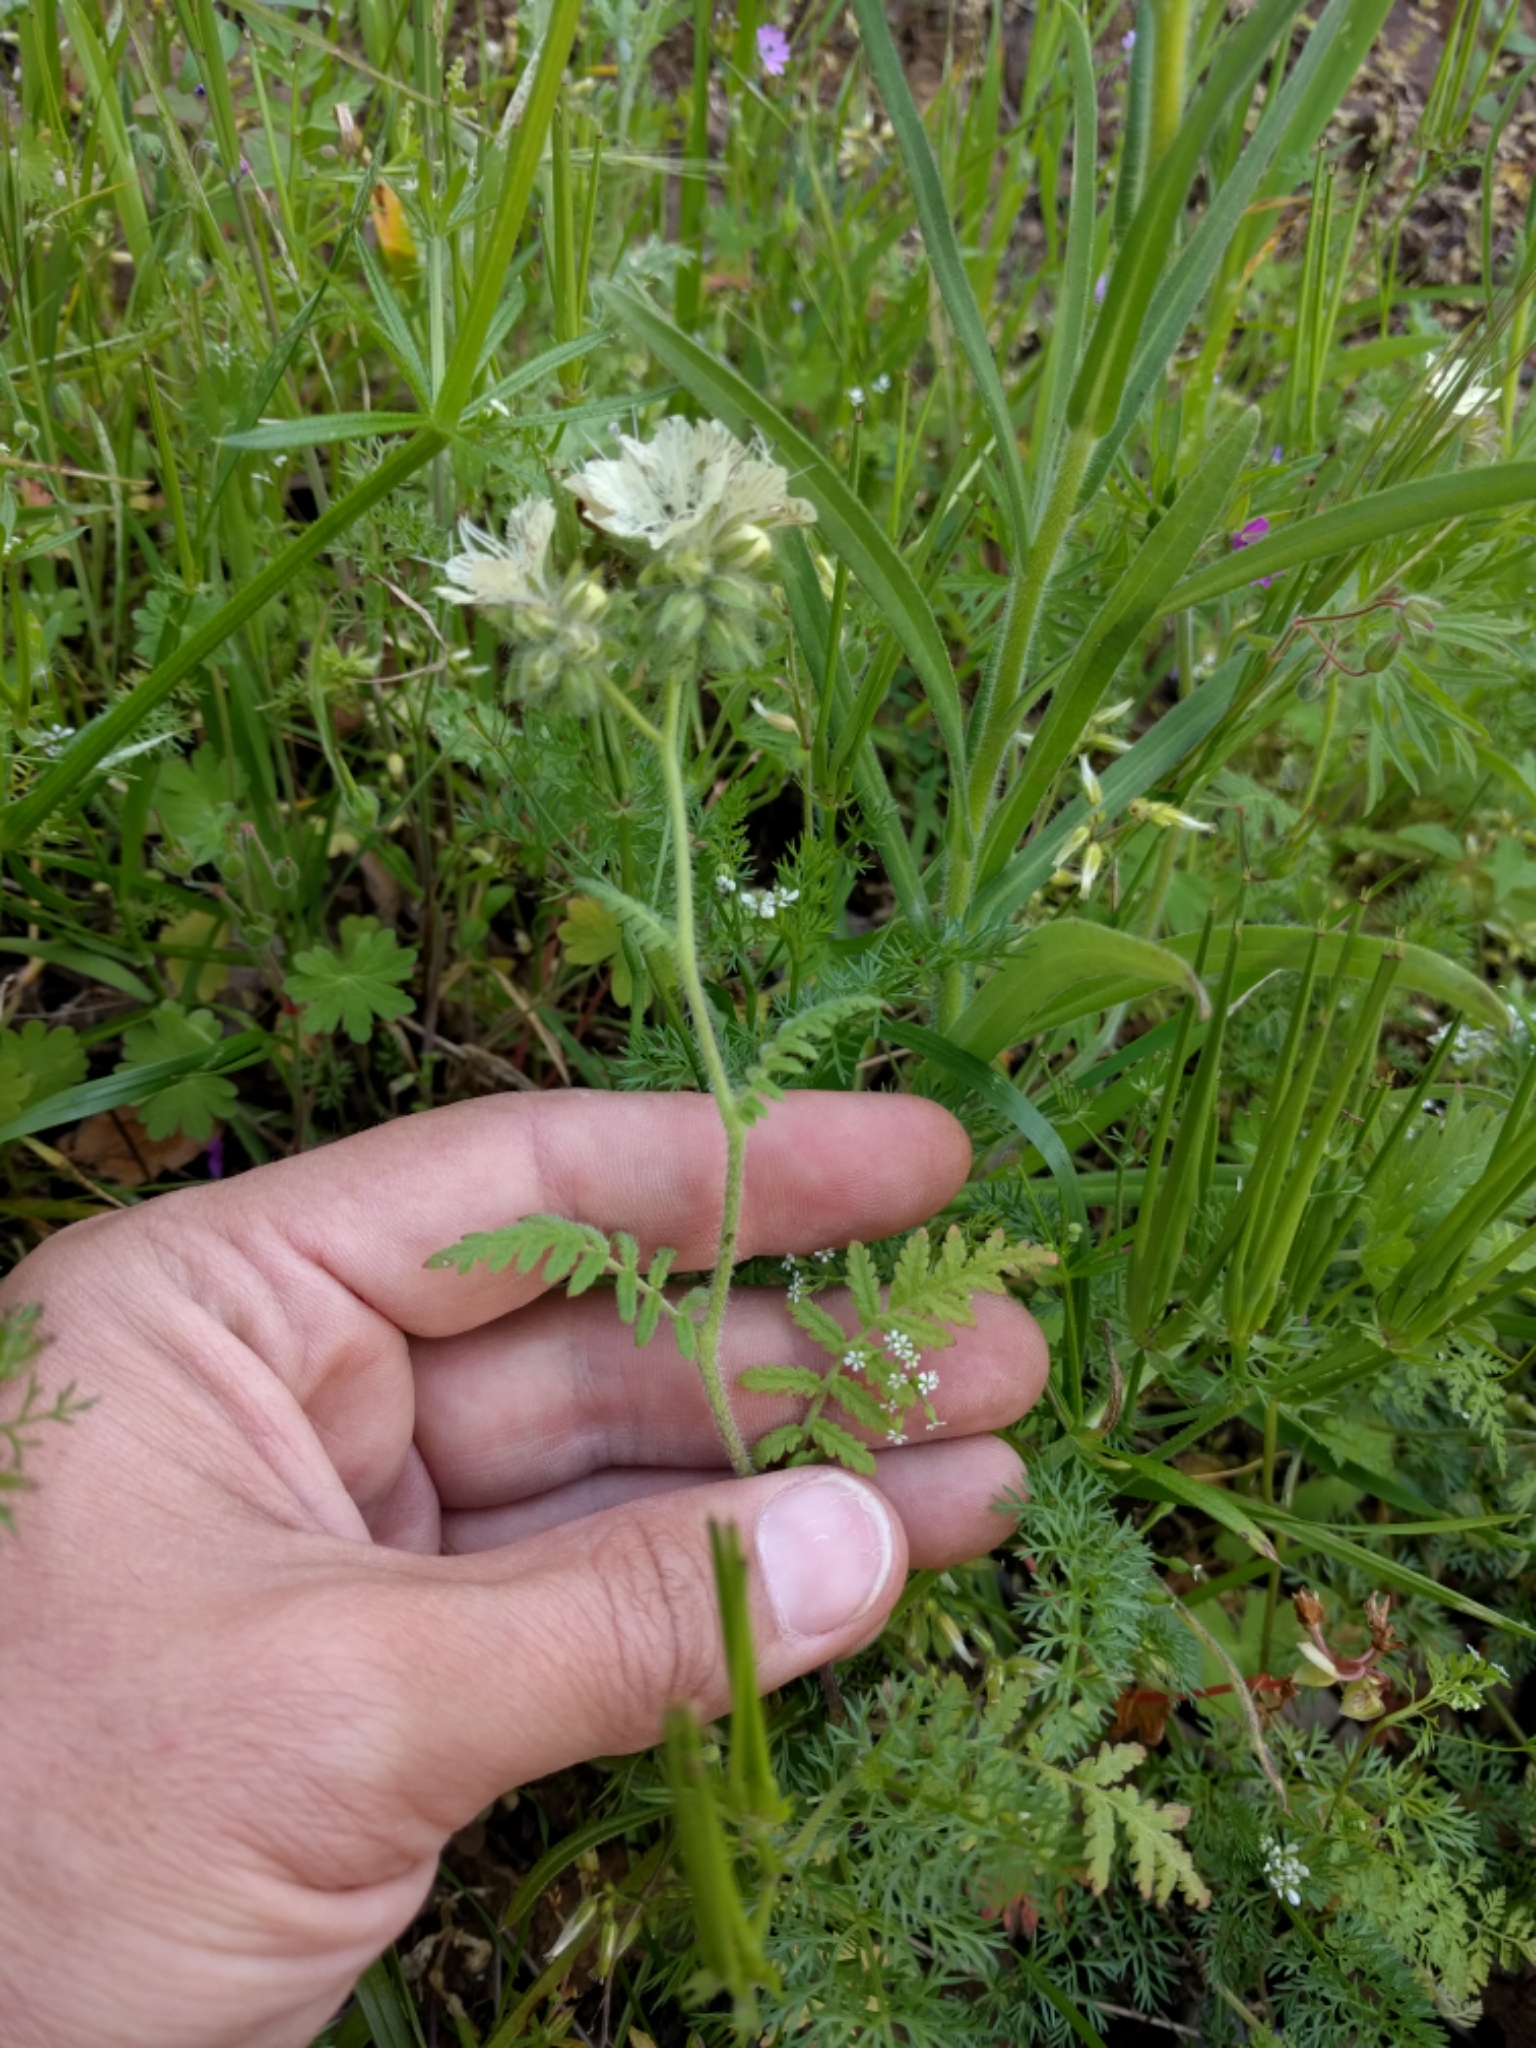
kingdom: Plantae
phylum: Tracheophyta
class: Magnoliopsida
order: Boraginales
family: Hydrophyllaceae
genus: Phacelia
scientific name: Phacelia distans
